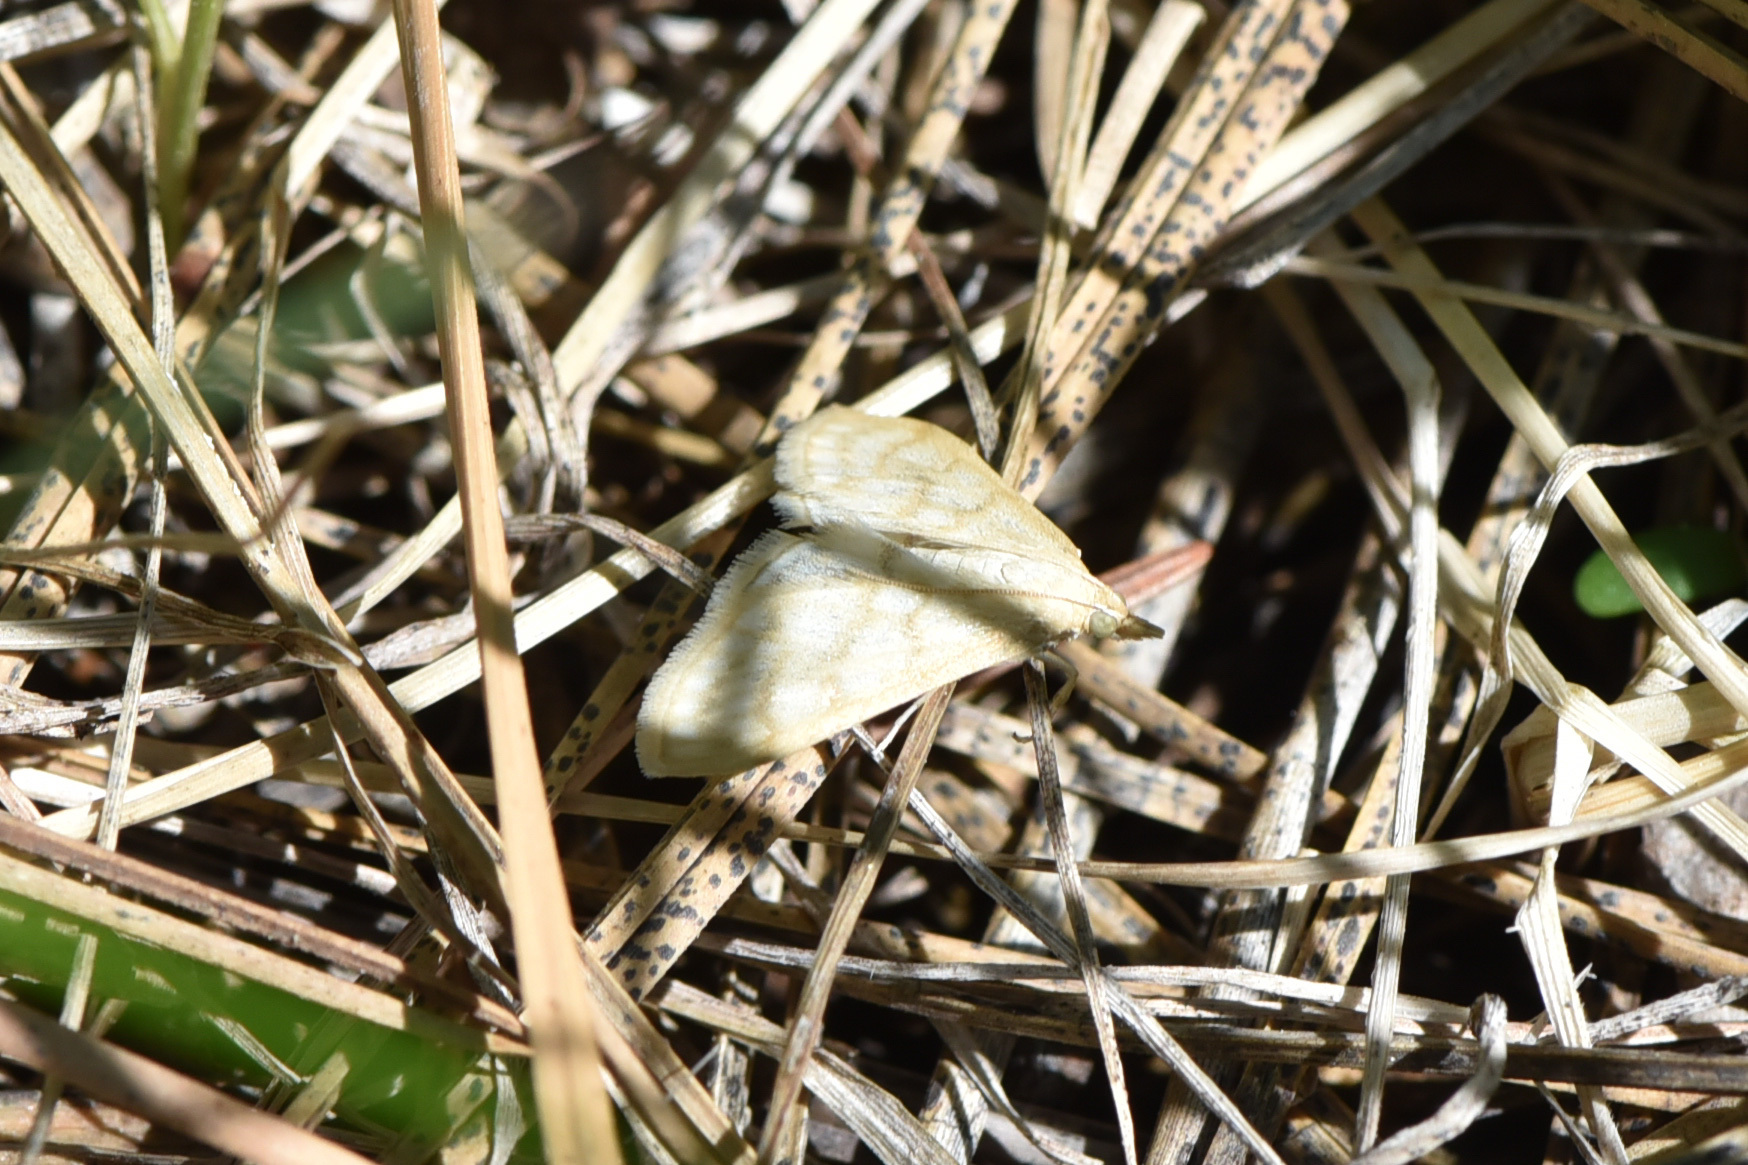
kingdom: Animalia
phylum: Arthropoda
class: Insecta
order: Lepidoptera
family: Crambidae
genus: Paracorsia
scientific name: Paracorsia repandalis
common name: Mullein moth
